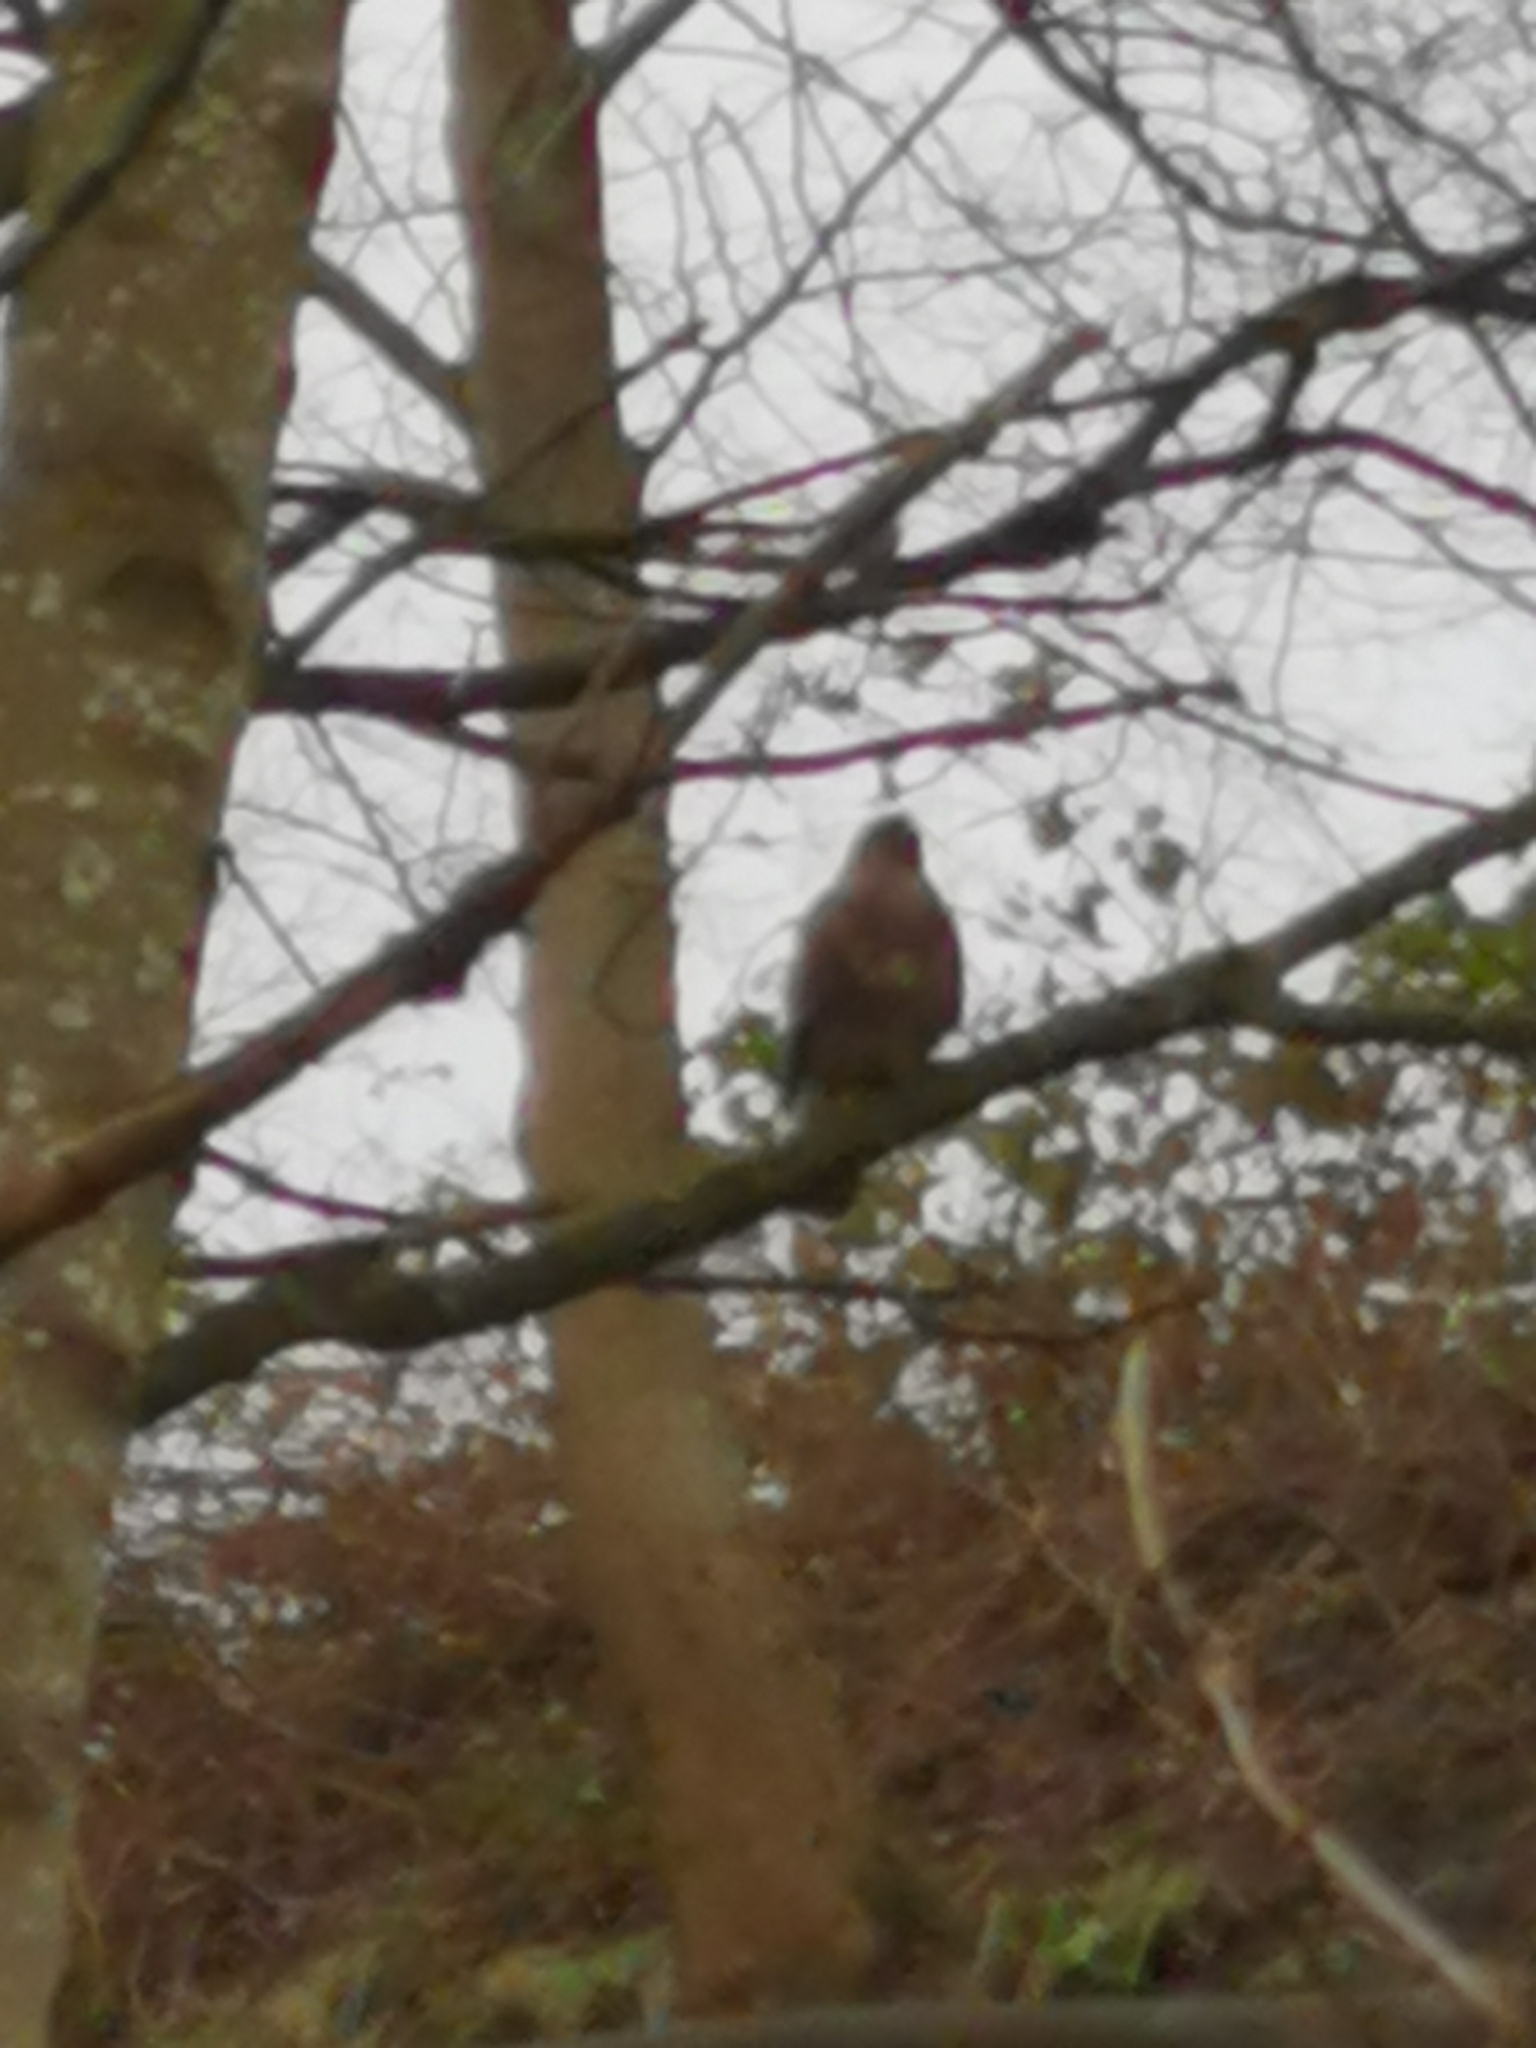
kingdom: Animalia
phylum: Chordata
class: Aves
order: Accipitriformes
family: Accipitridae
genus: Buteo
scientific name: Buteo buteo
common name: Common buzzard
